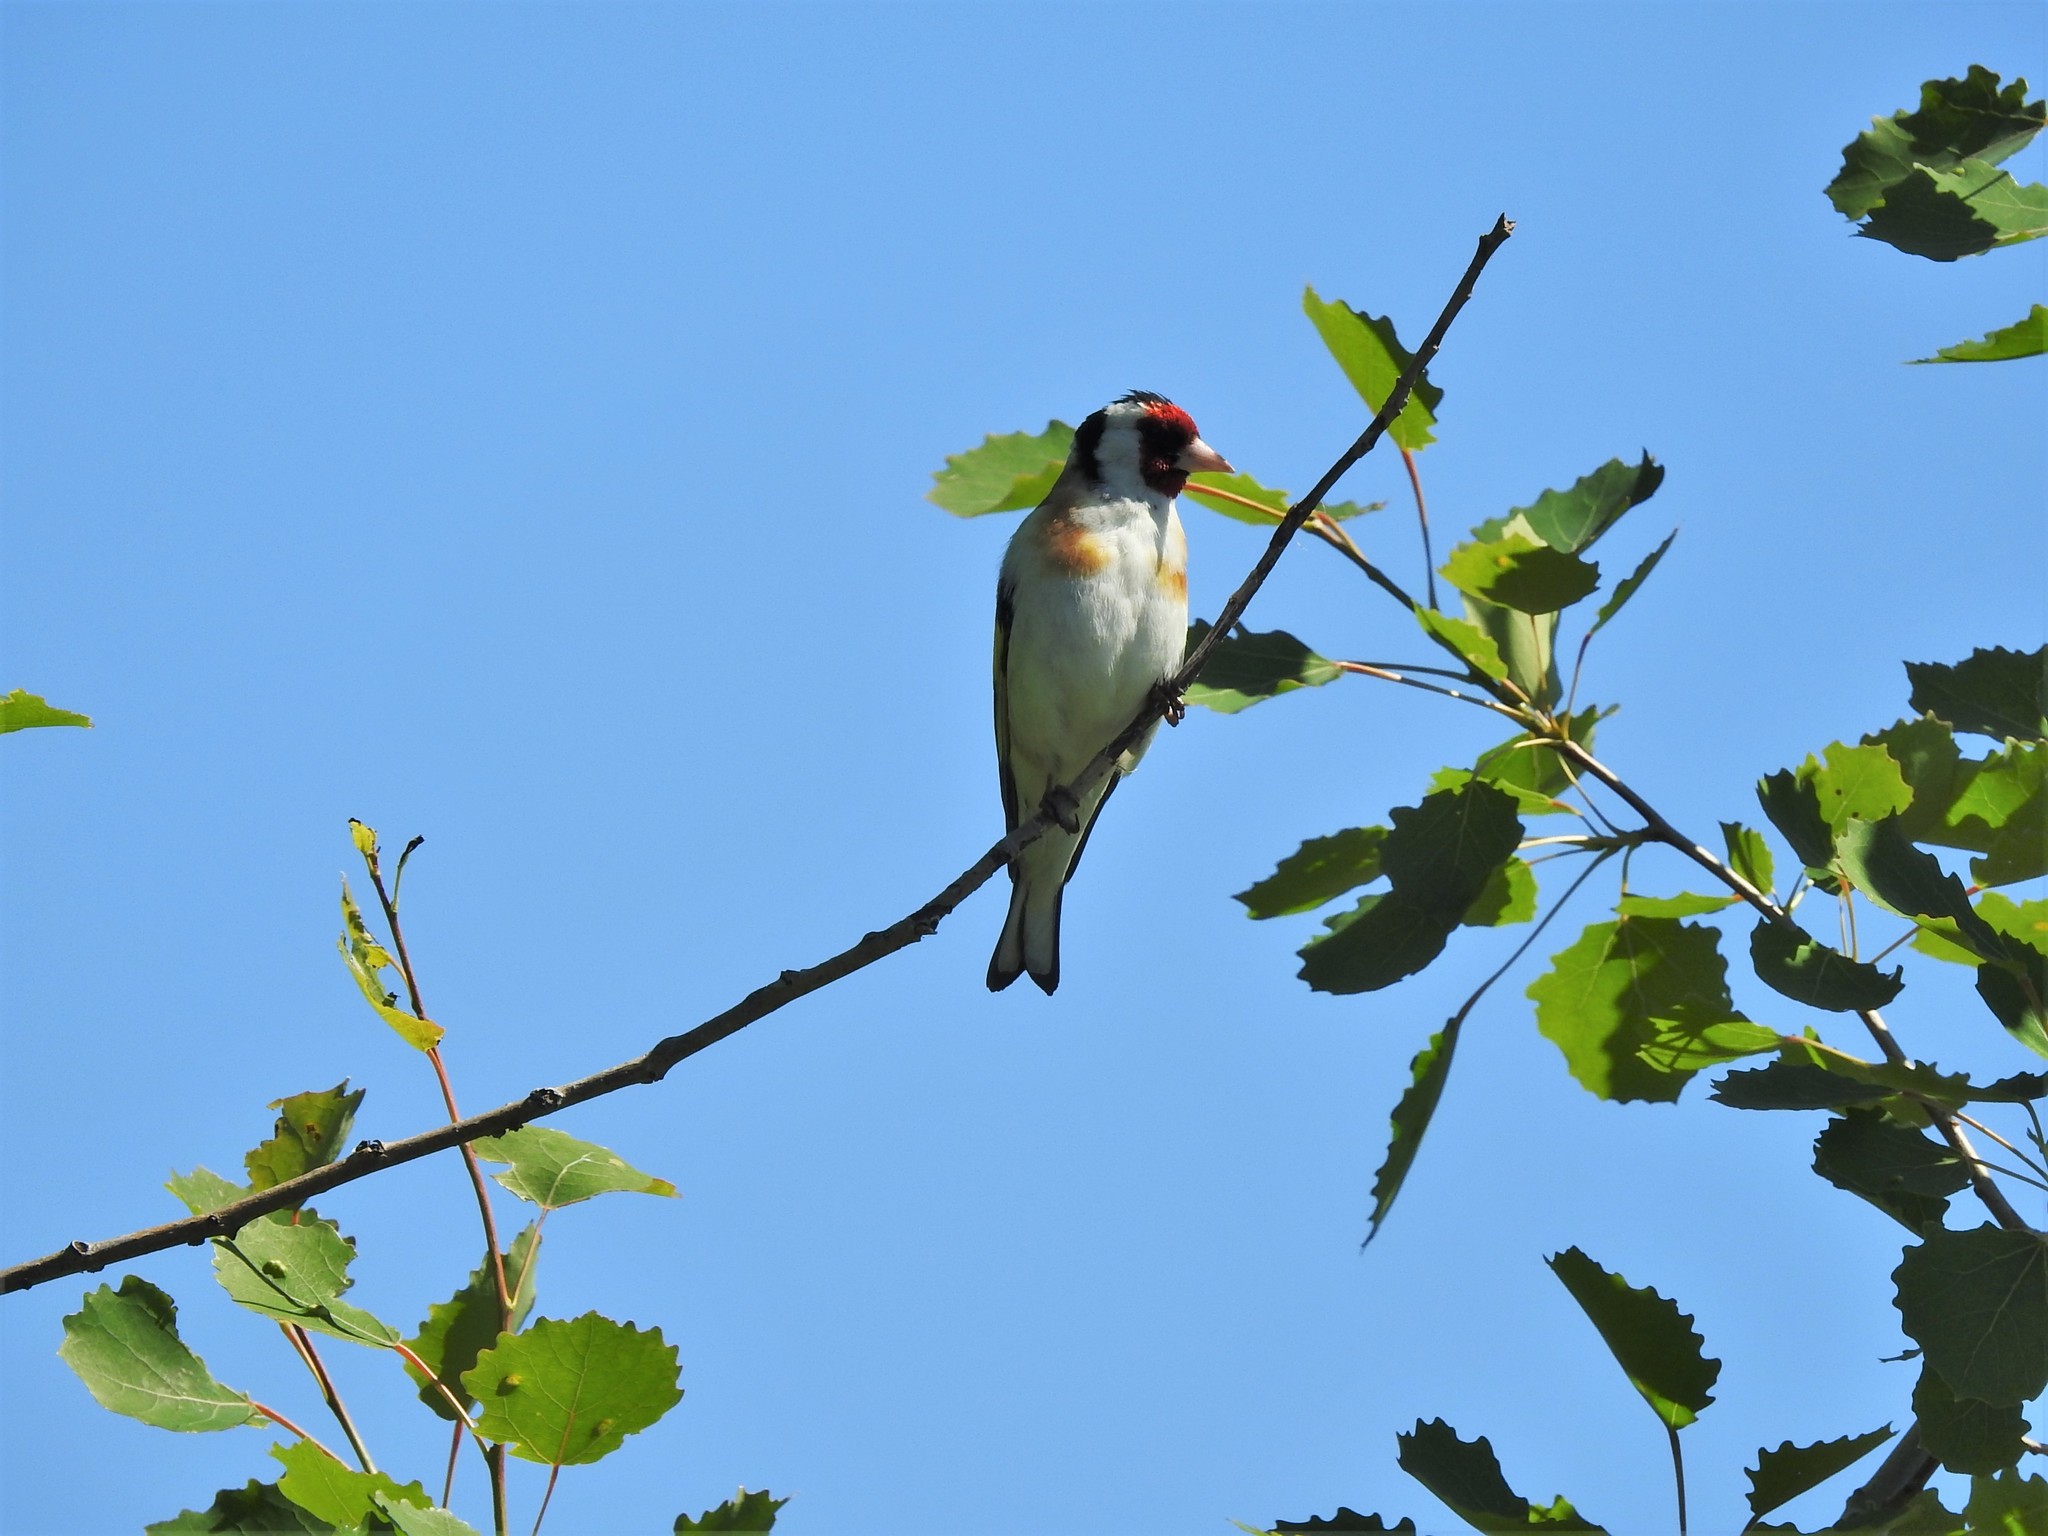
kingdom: Animalia
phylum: Chordata
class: Aves
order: Passeriformes
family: Fringillidae
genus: Carduelis
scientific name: Carduelis carduelis
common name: European goldfinch
